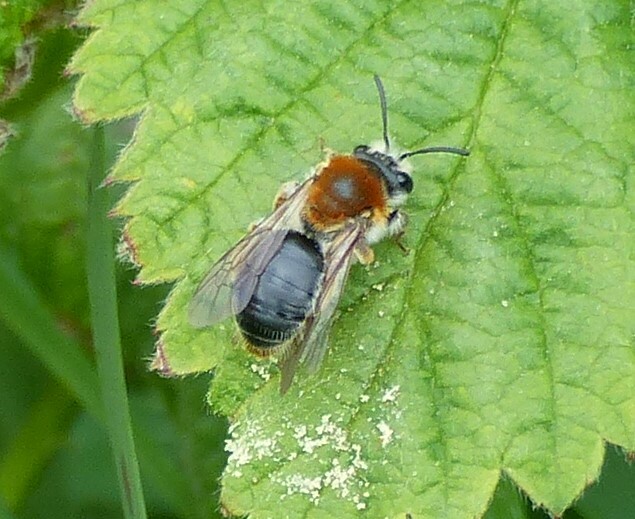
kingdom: Animalia
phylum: Arthropoda
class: Insecta
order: Hymenoptera
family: Andrenidae
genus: Andrena
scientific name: Andrena haemorrhoa
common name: Early mining bee
